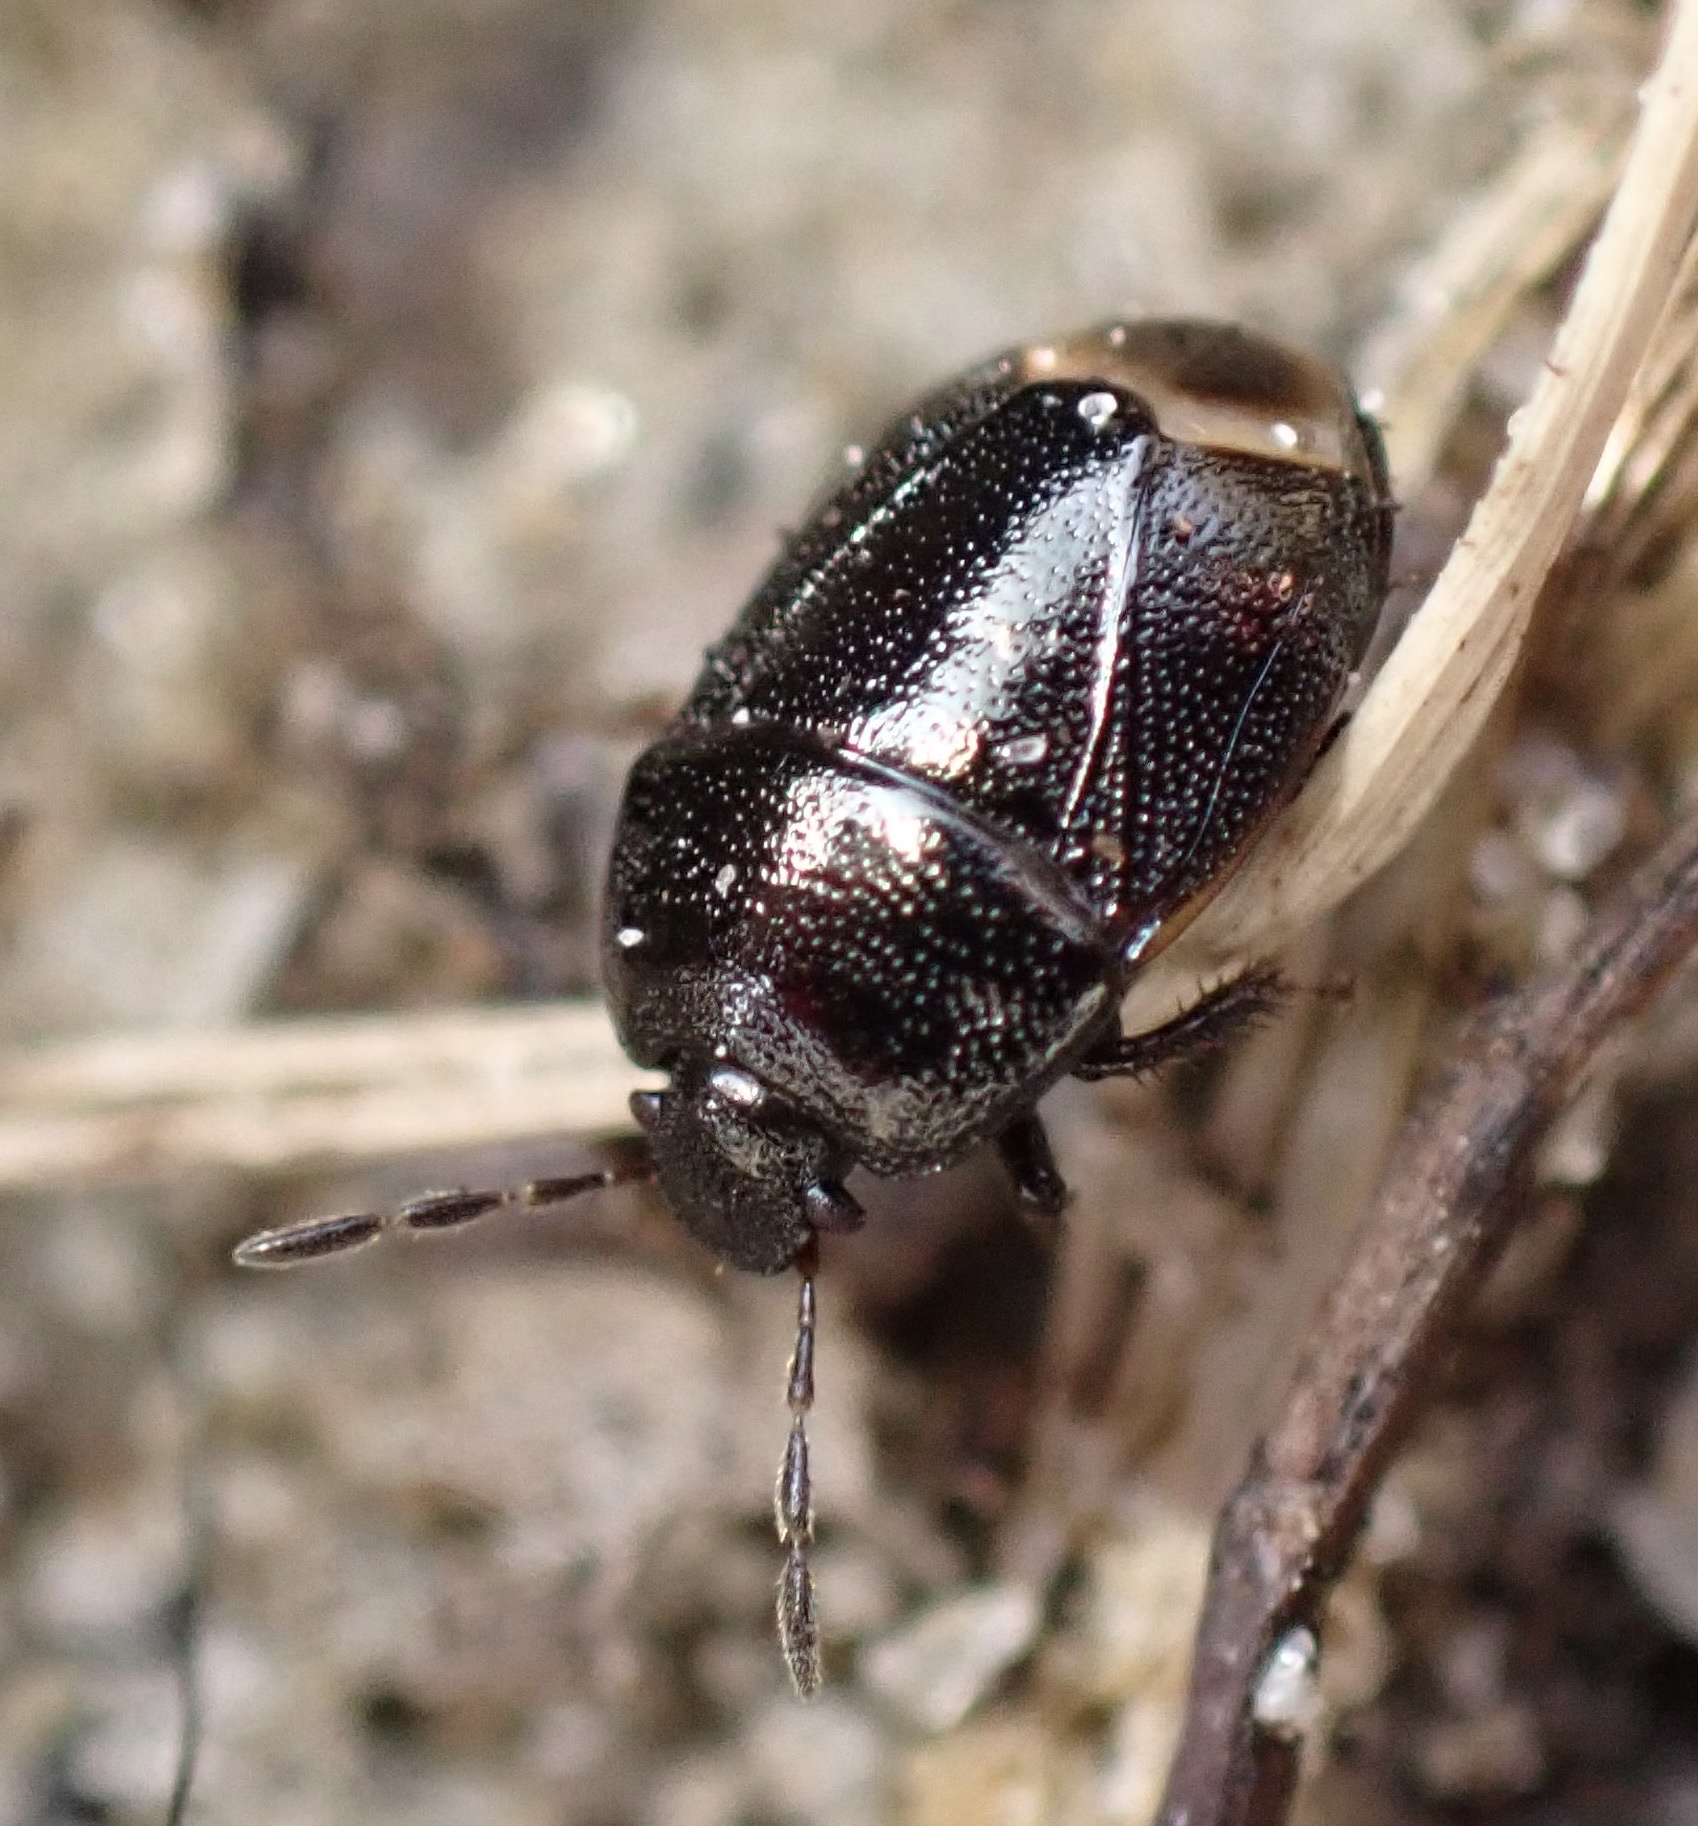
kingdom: Animalia
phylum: Arthropoda
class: Insecta
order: Hemiptera
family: Cydnidae
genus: Legnotus
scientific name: Legnotus picipes
